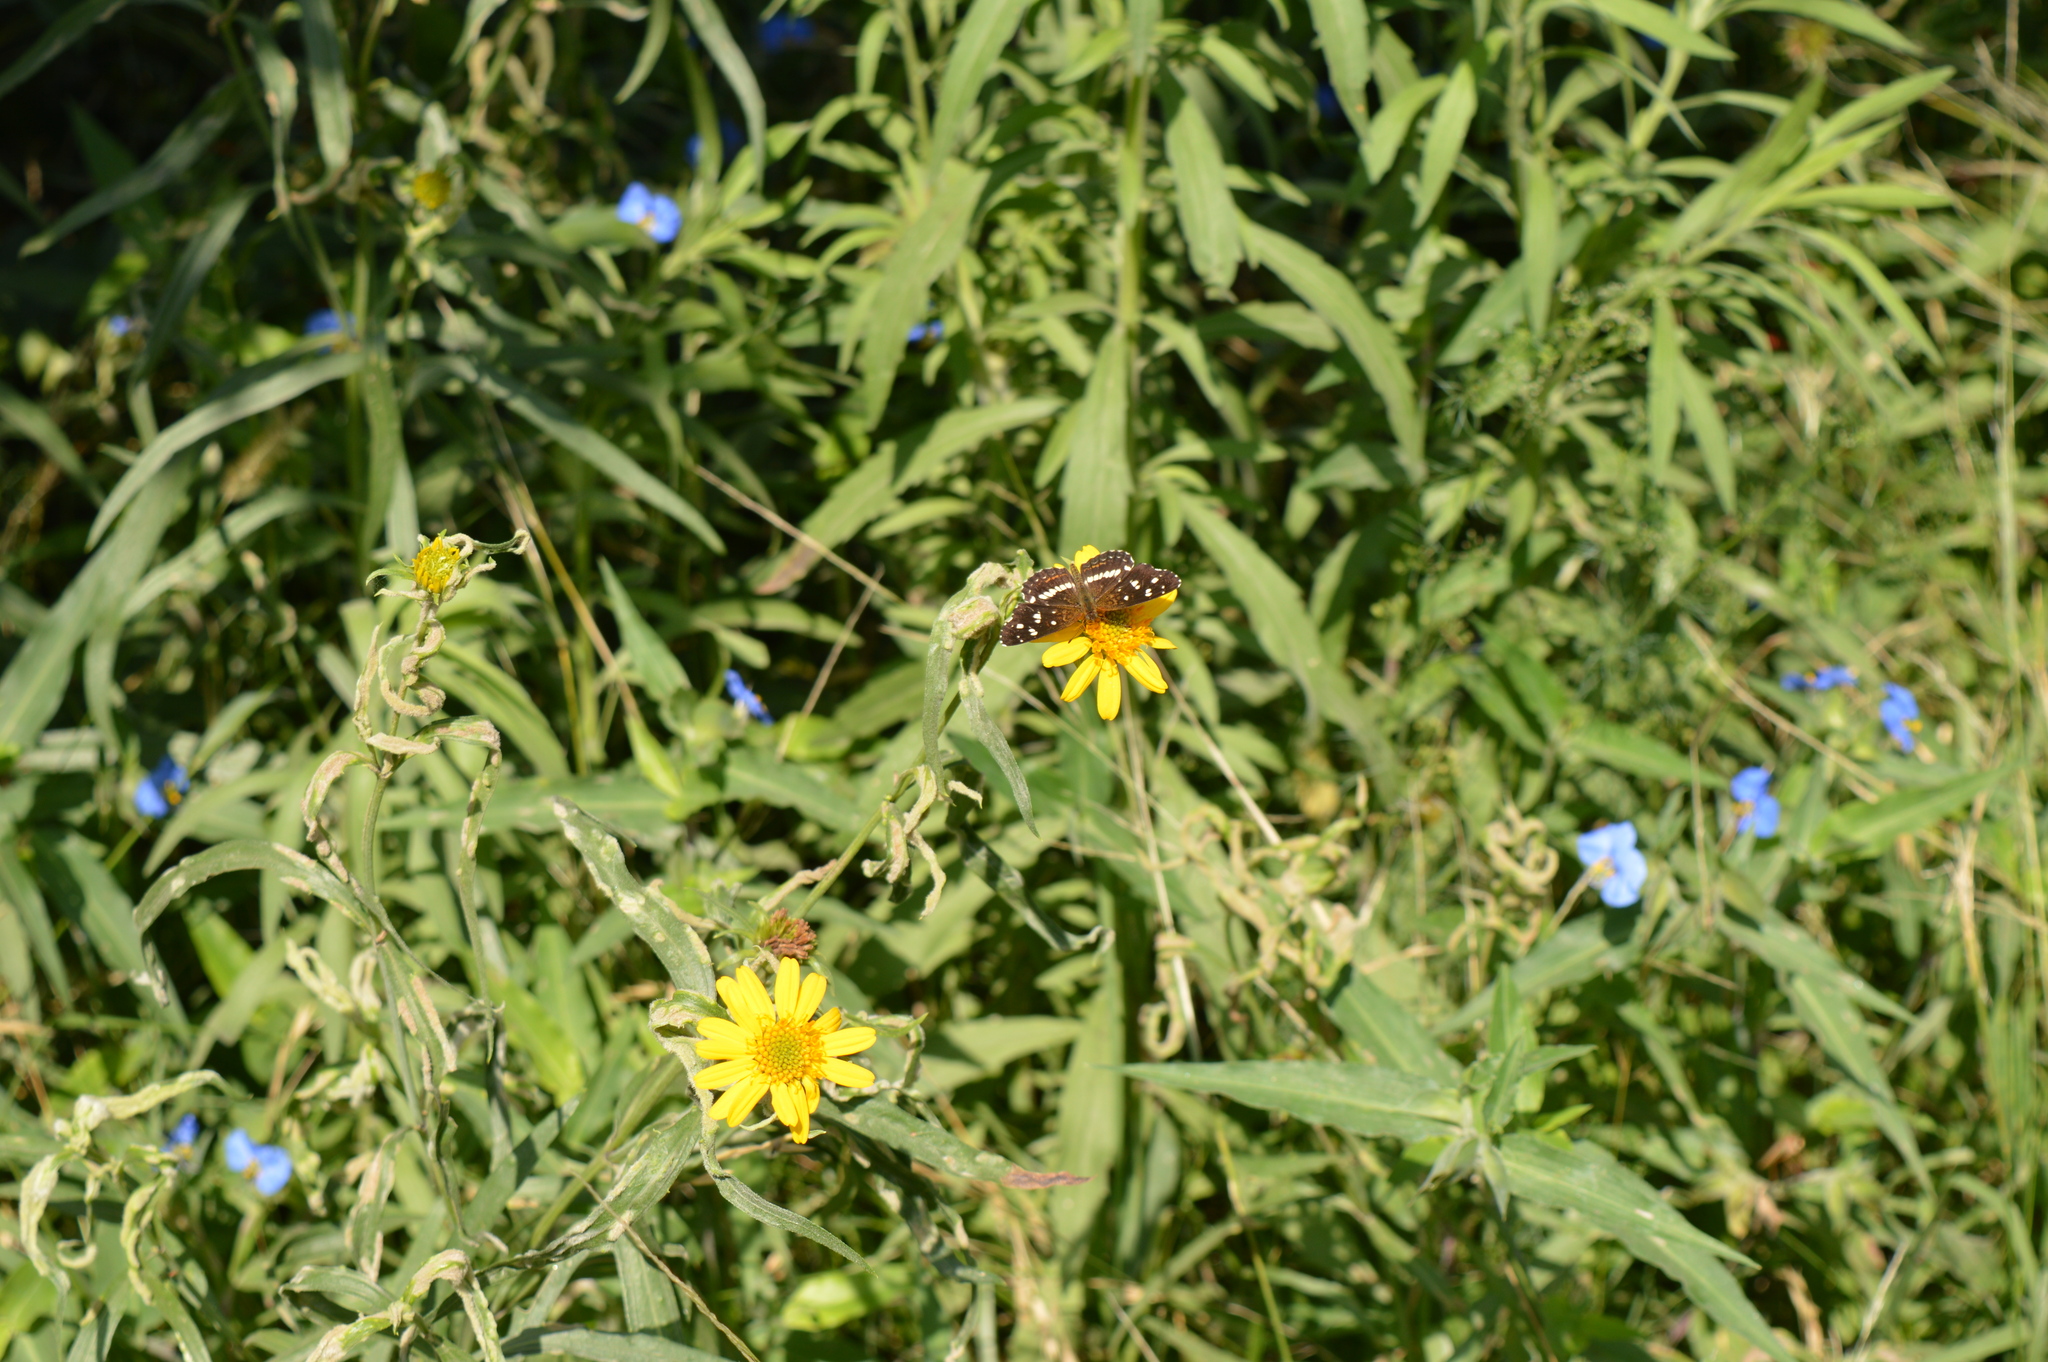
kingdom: Animalia
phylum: Arthropoda
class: Insecta
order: Lepidoptera
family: Nymphalidae
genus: Ortilia
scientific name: Ortilia ithra
